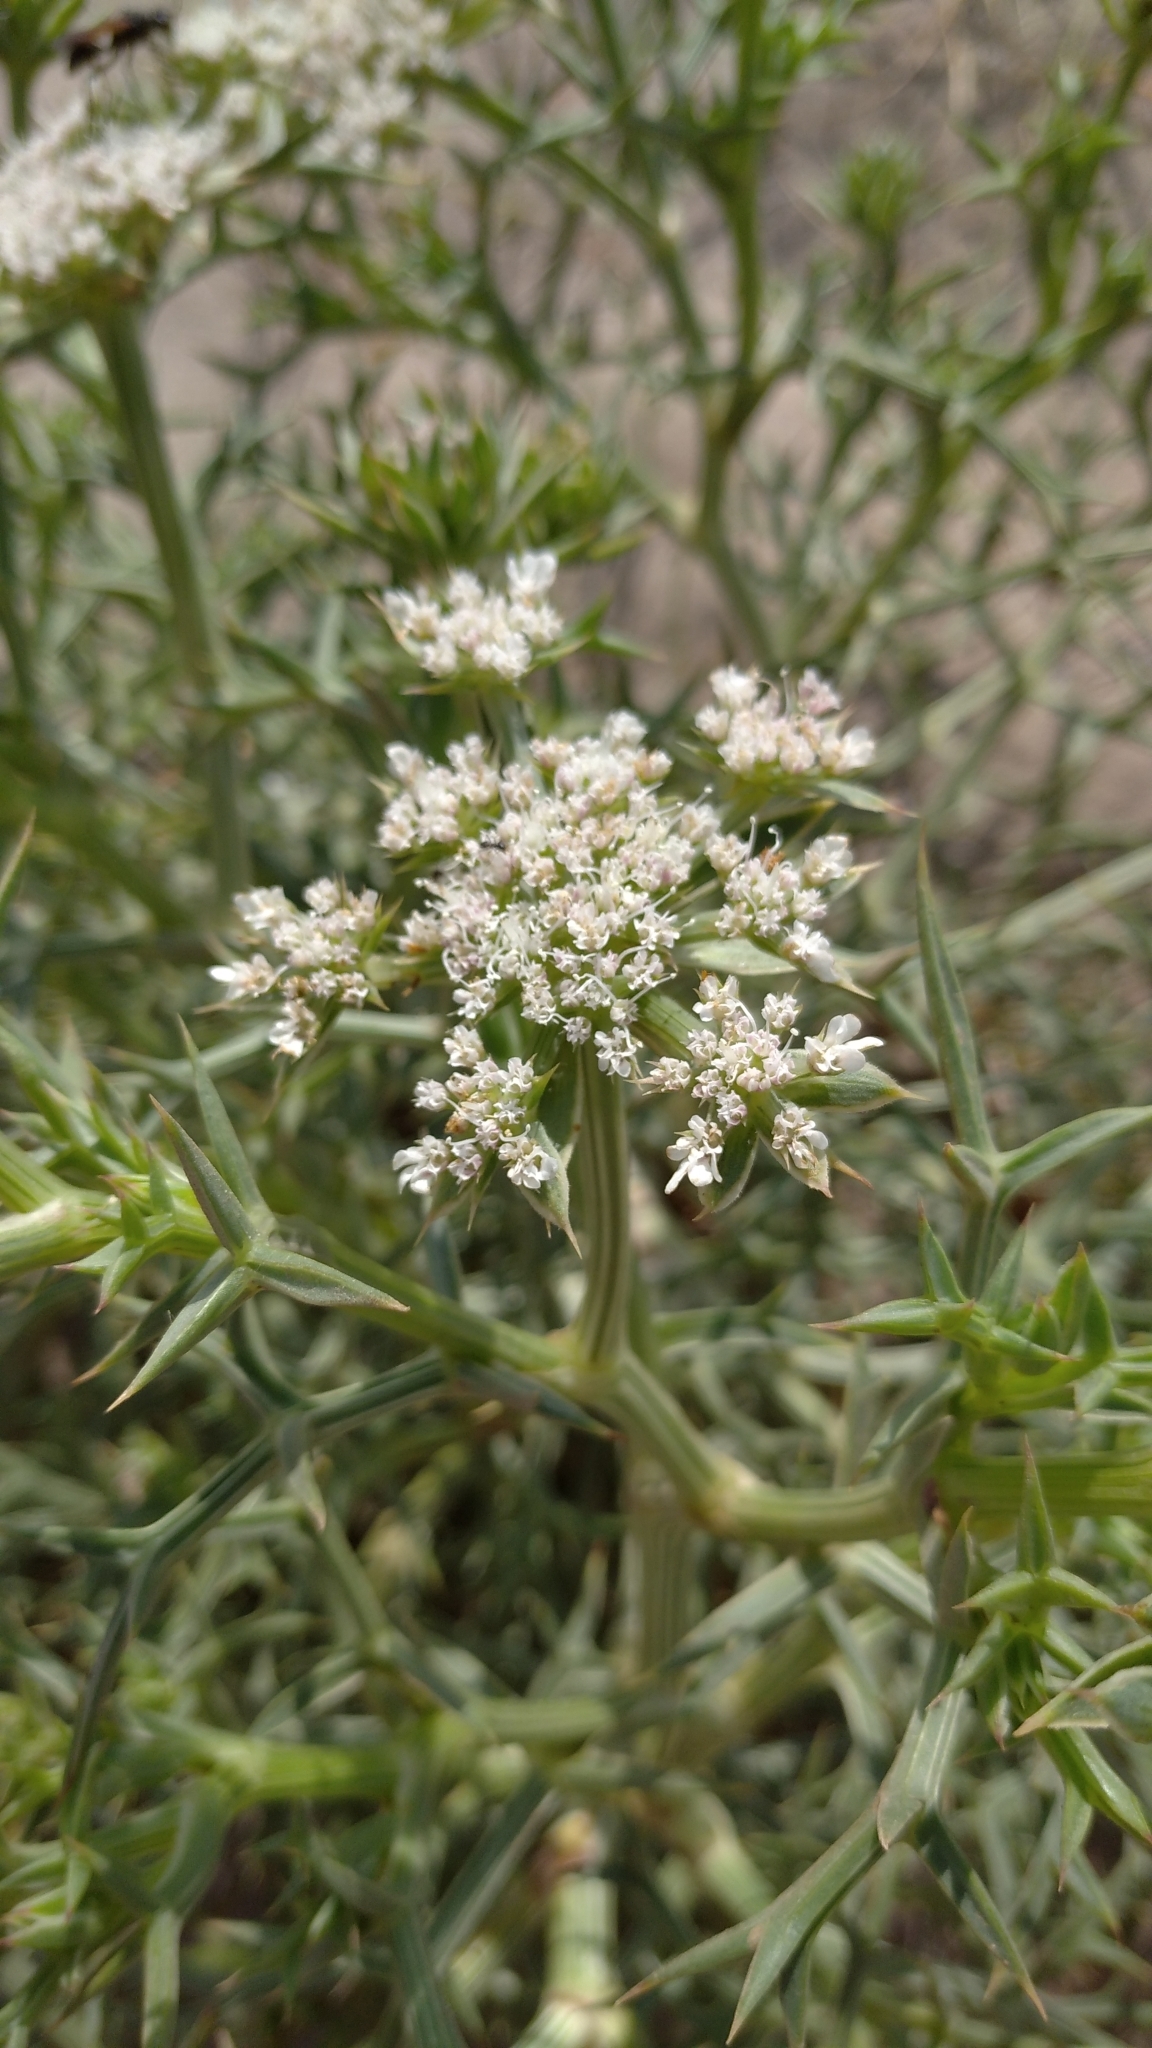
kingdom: Plantae
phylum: Tracheophyta
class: Magnoliopsida
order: Apiales
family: Apiaceae
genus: Echinophora
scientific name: Echinophora spinosa
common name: Prickly samphire
